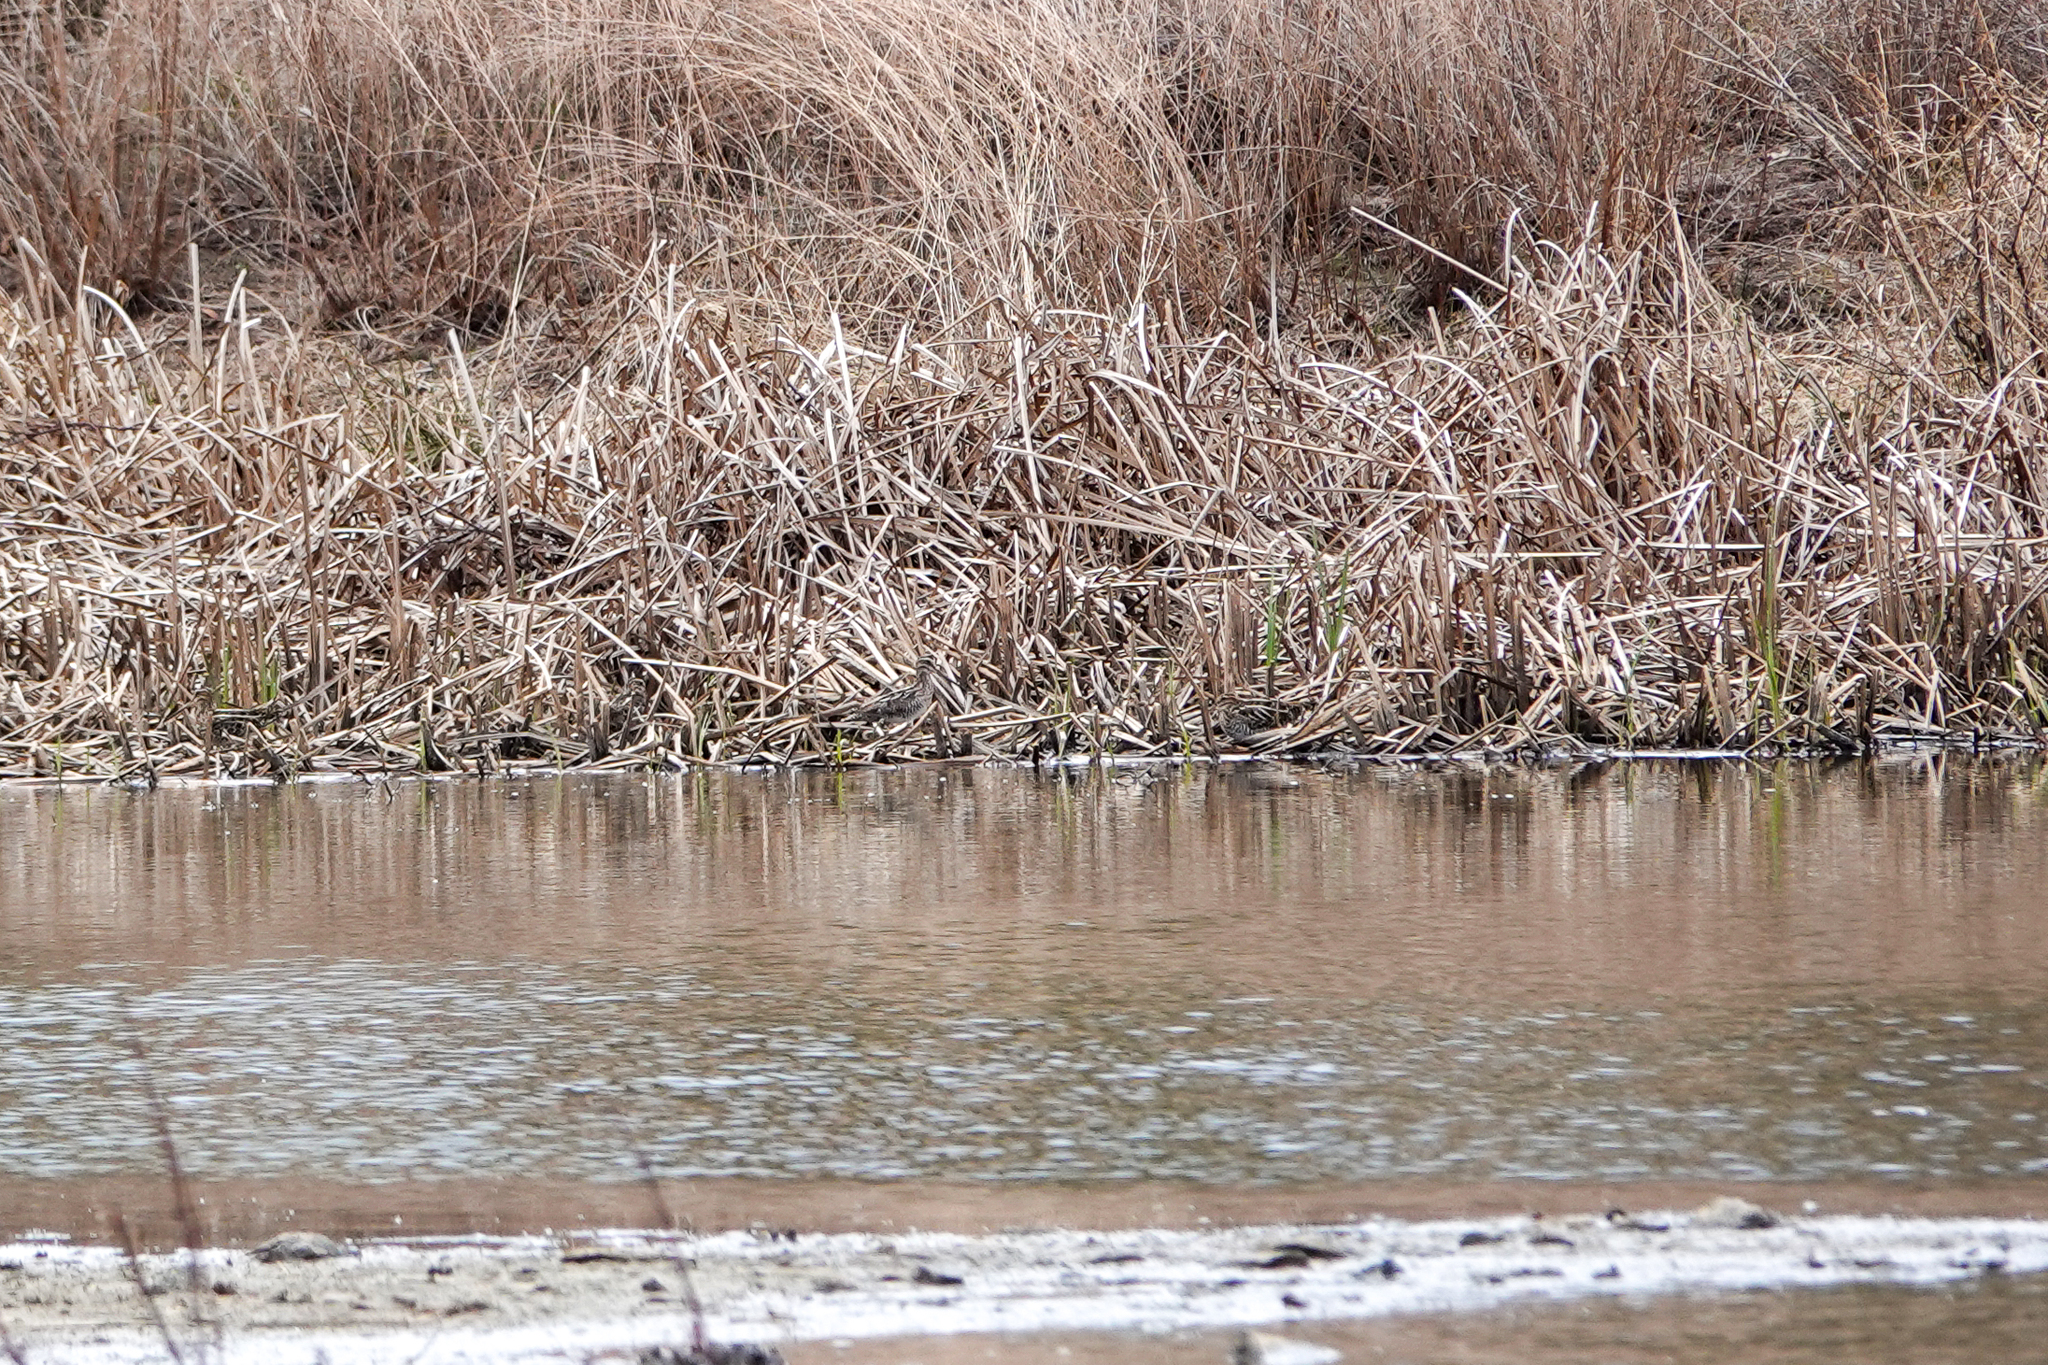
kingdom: Animalia
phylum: Chordata
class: Aves
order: Charadriiformes
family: Scolopacidae
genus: Gallinago
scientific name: Gallinago delicata
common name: Wilson's snipe
